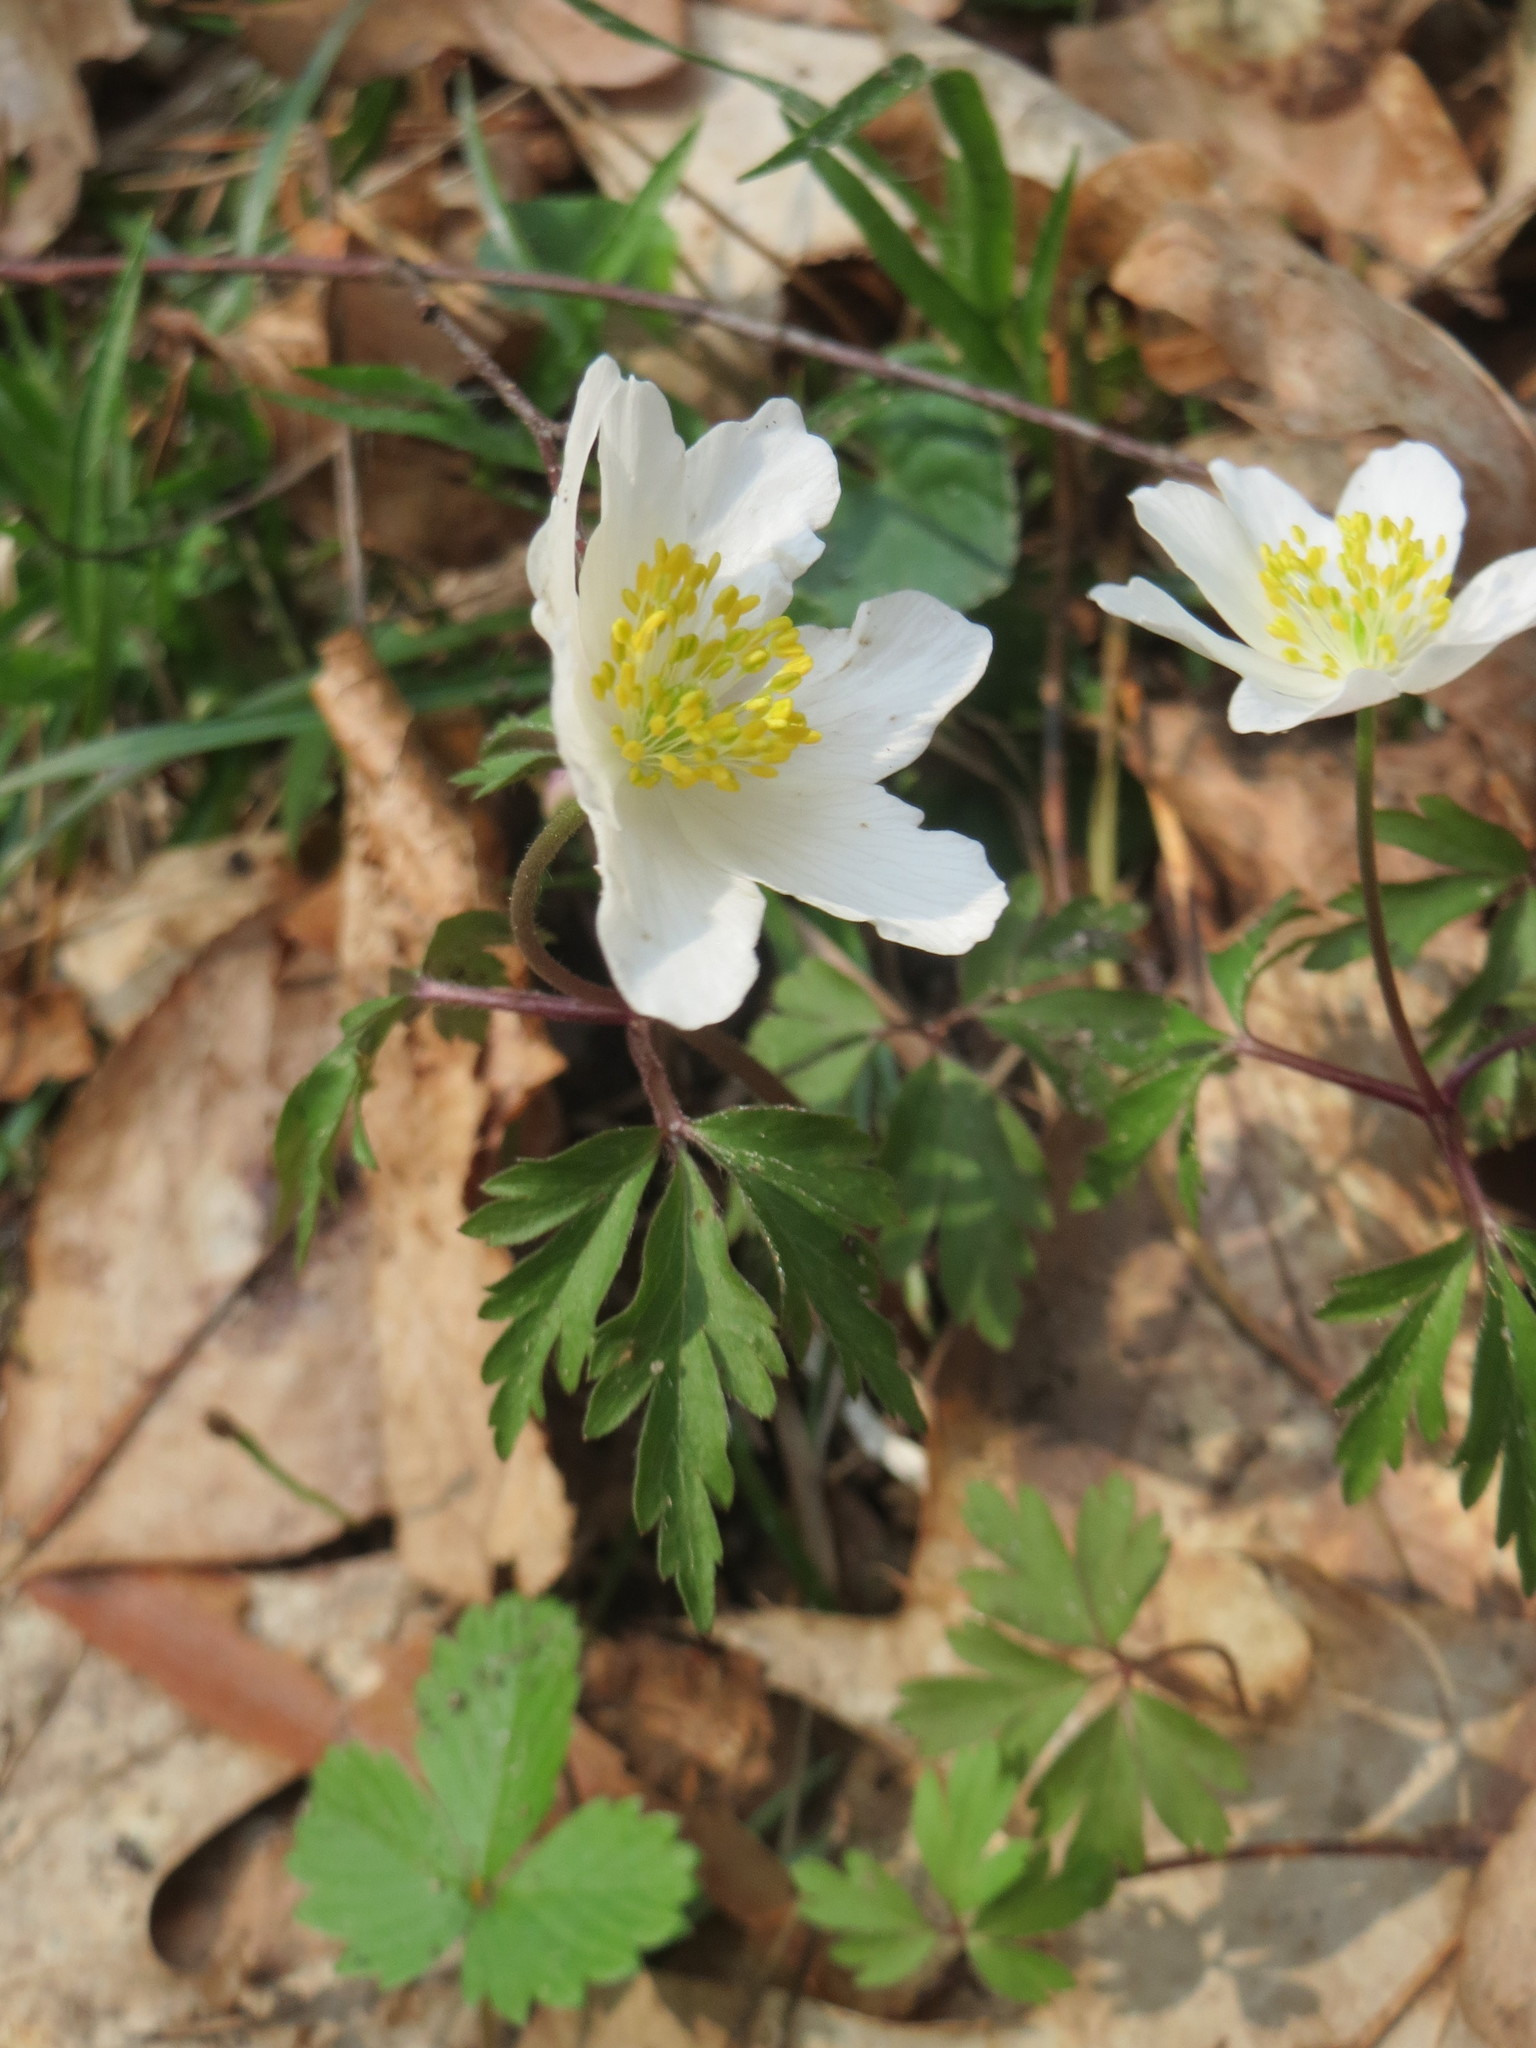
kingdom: Plantae
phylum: Tracheophyta
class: Magnoliopsida
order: Ranunculales
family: Ranunculaceae
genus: Anemone
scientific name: Anemone nemorosa
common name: Wood anemone
